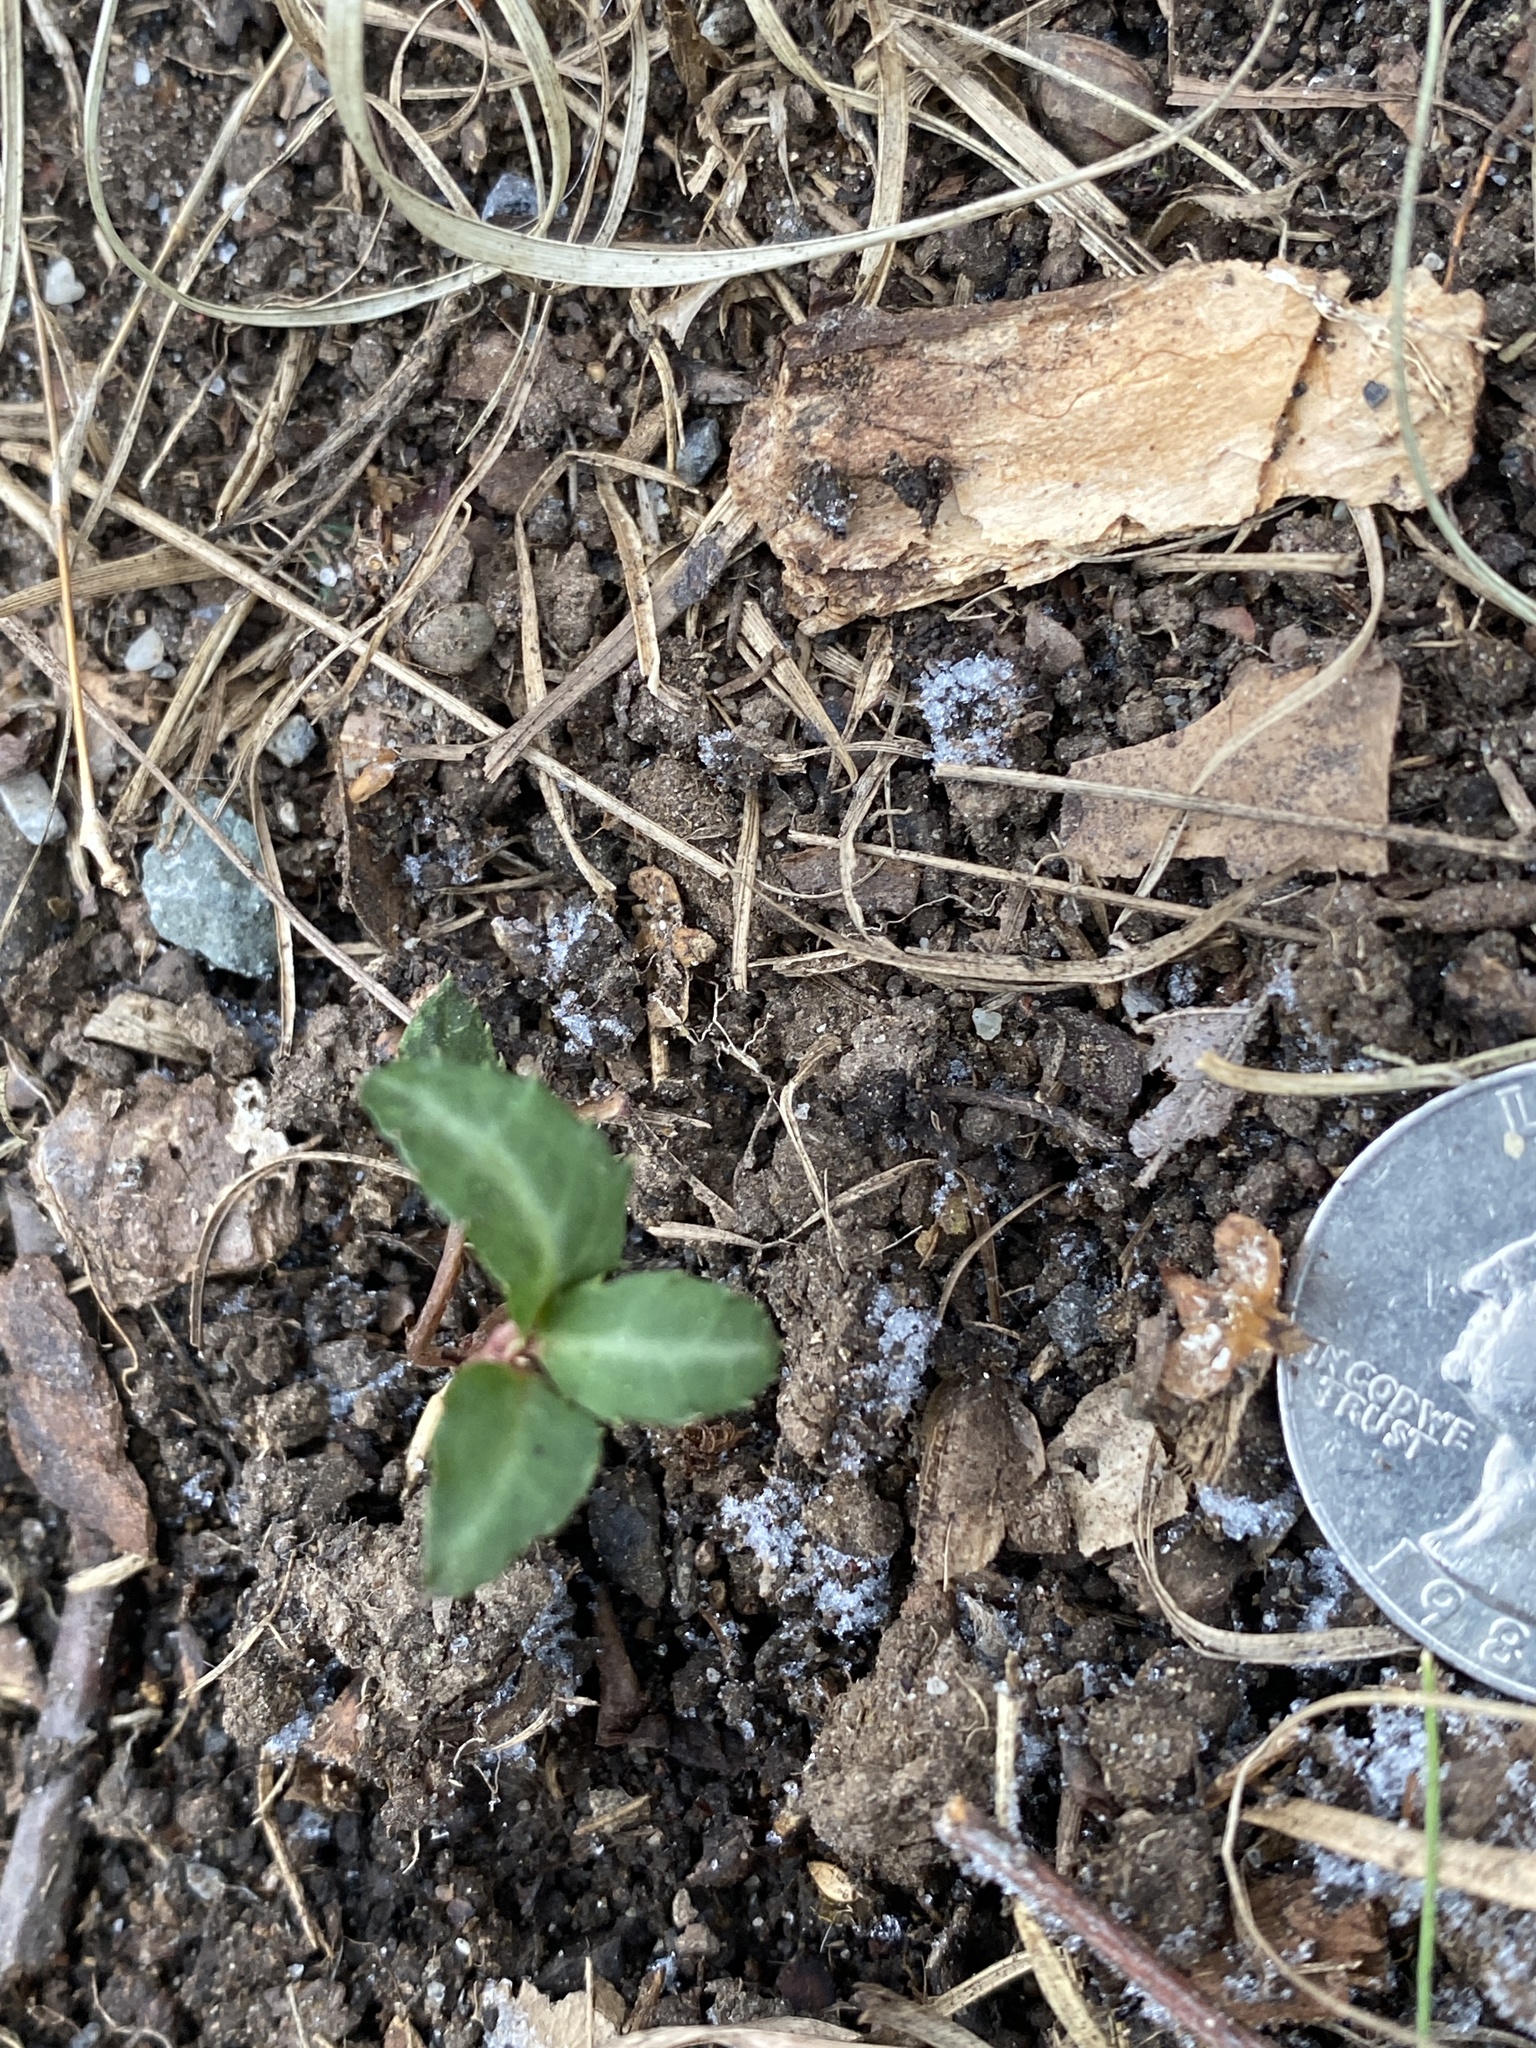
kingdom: Plantae
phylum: Tracheophyta
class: Magnoliopsida
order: Ericales
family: Ericaceae
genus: Chimaphila
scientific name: Chimaphila maculata
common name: Spotted pipsissewa
